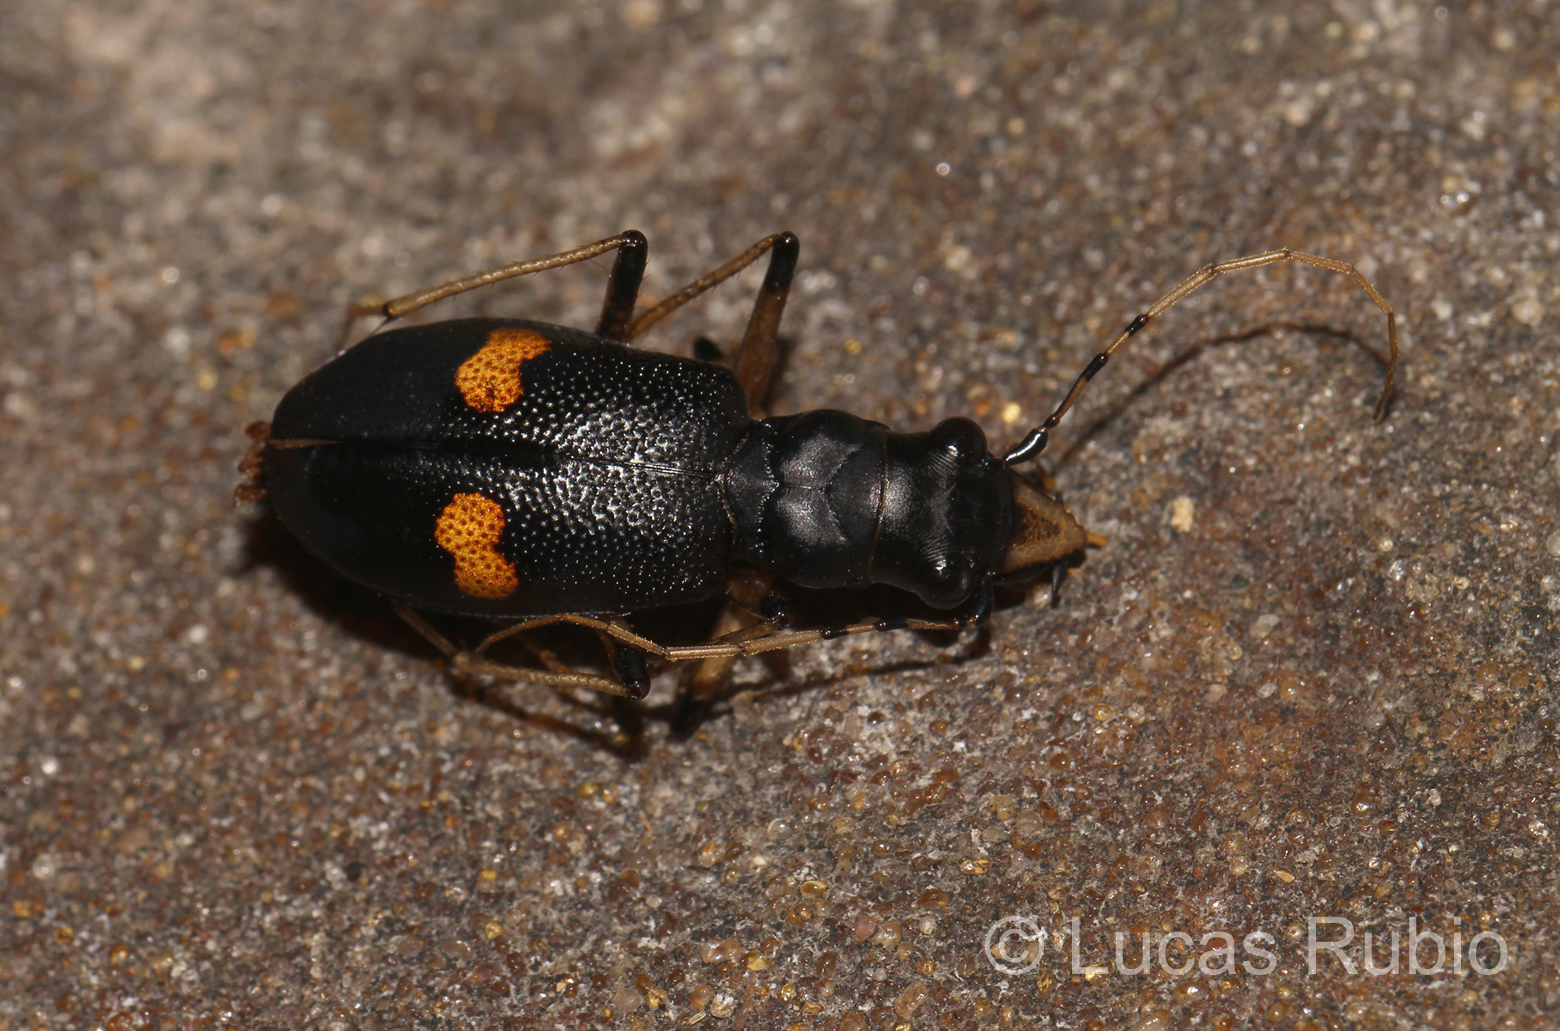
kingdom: Animalia
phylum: Arthropoda
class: Insecta
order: Coleoptera
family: Carabidae
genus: Oxycheila
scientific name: Oxycheila femoralis
